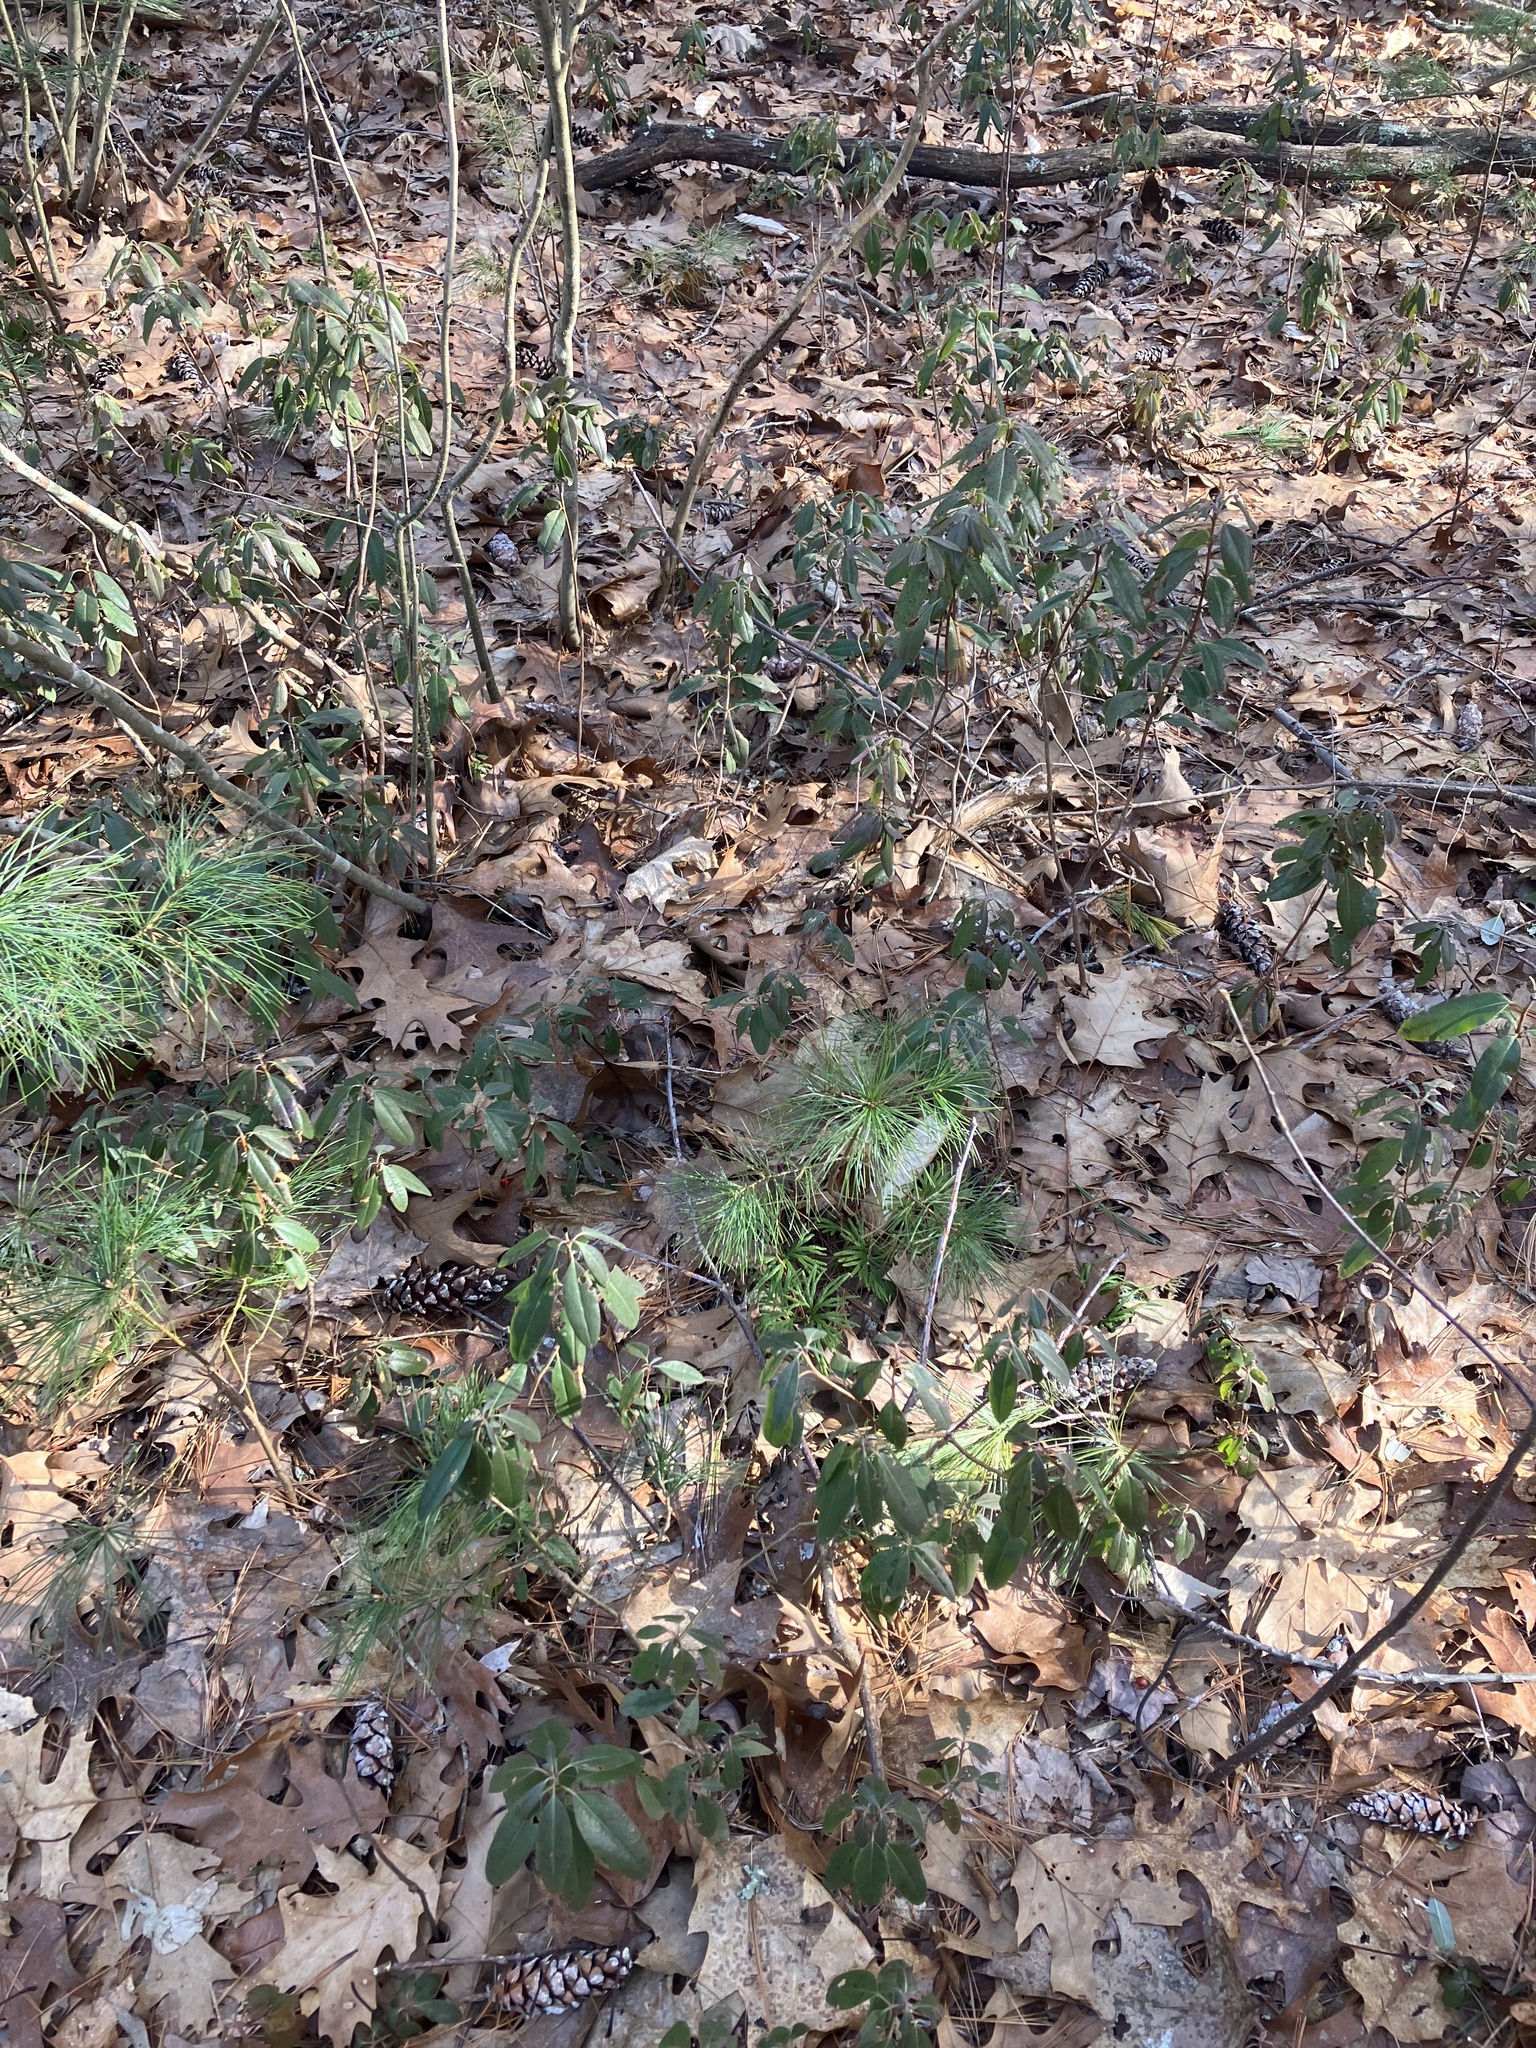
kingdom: Plantae
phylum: Tracheophyta
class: Magnoliopsida
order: Ericales
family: Ericaceae
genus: Kalmia
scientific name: Kalmia angustifolia
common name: Sheep-laurel
